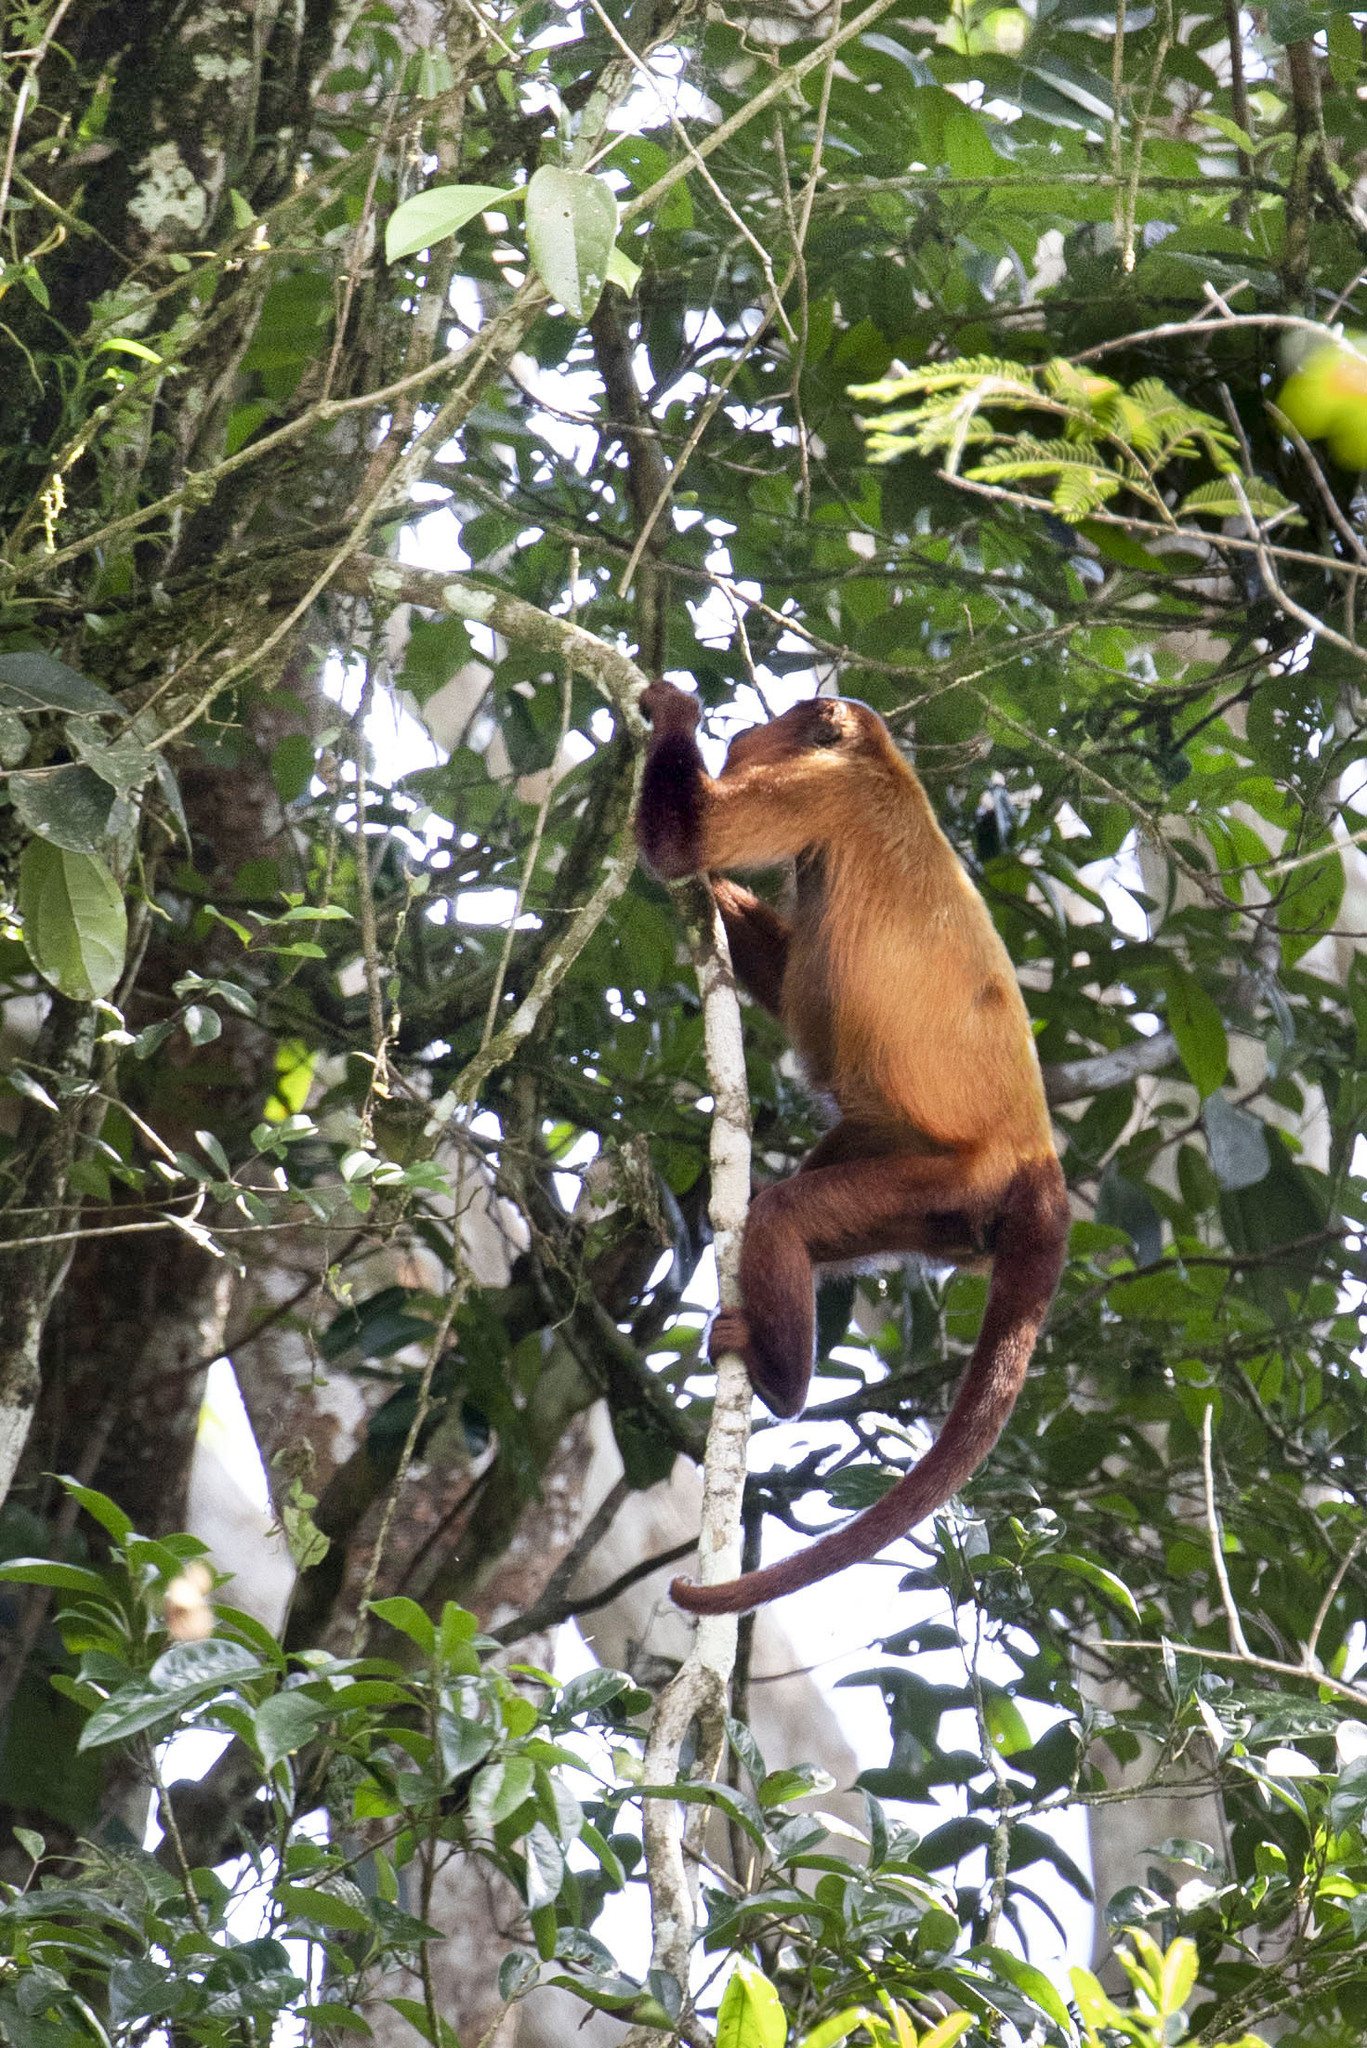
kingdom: Animalia
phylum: Chordata
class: Mammalia
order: Primates
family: Atelidae
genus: Alouatta
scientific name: Alouatta macconnelli
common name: Guyanan red howler
